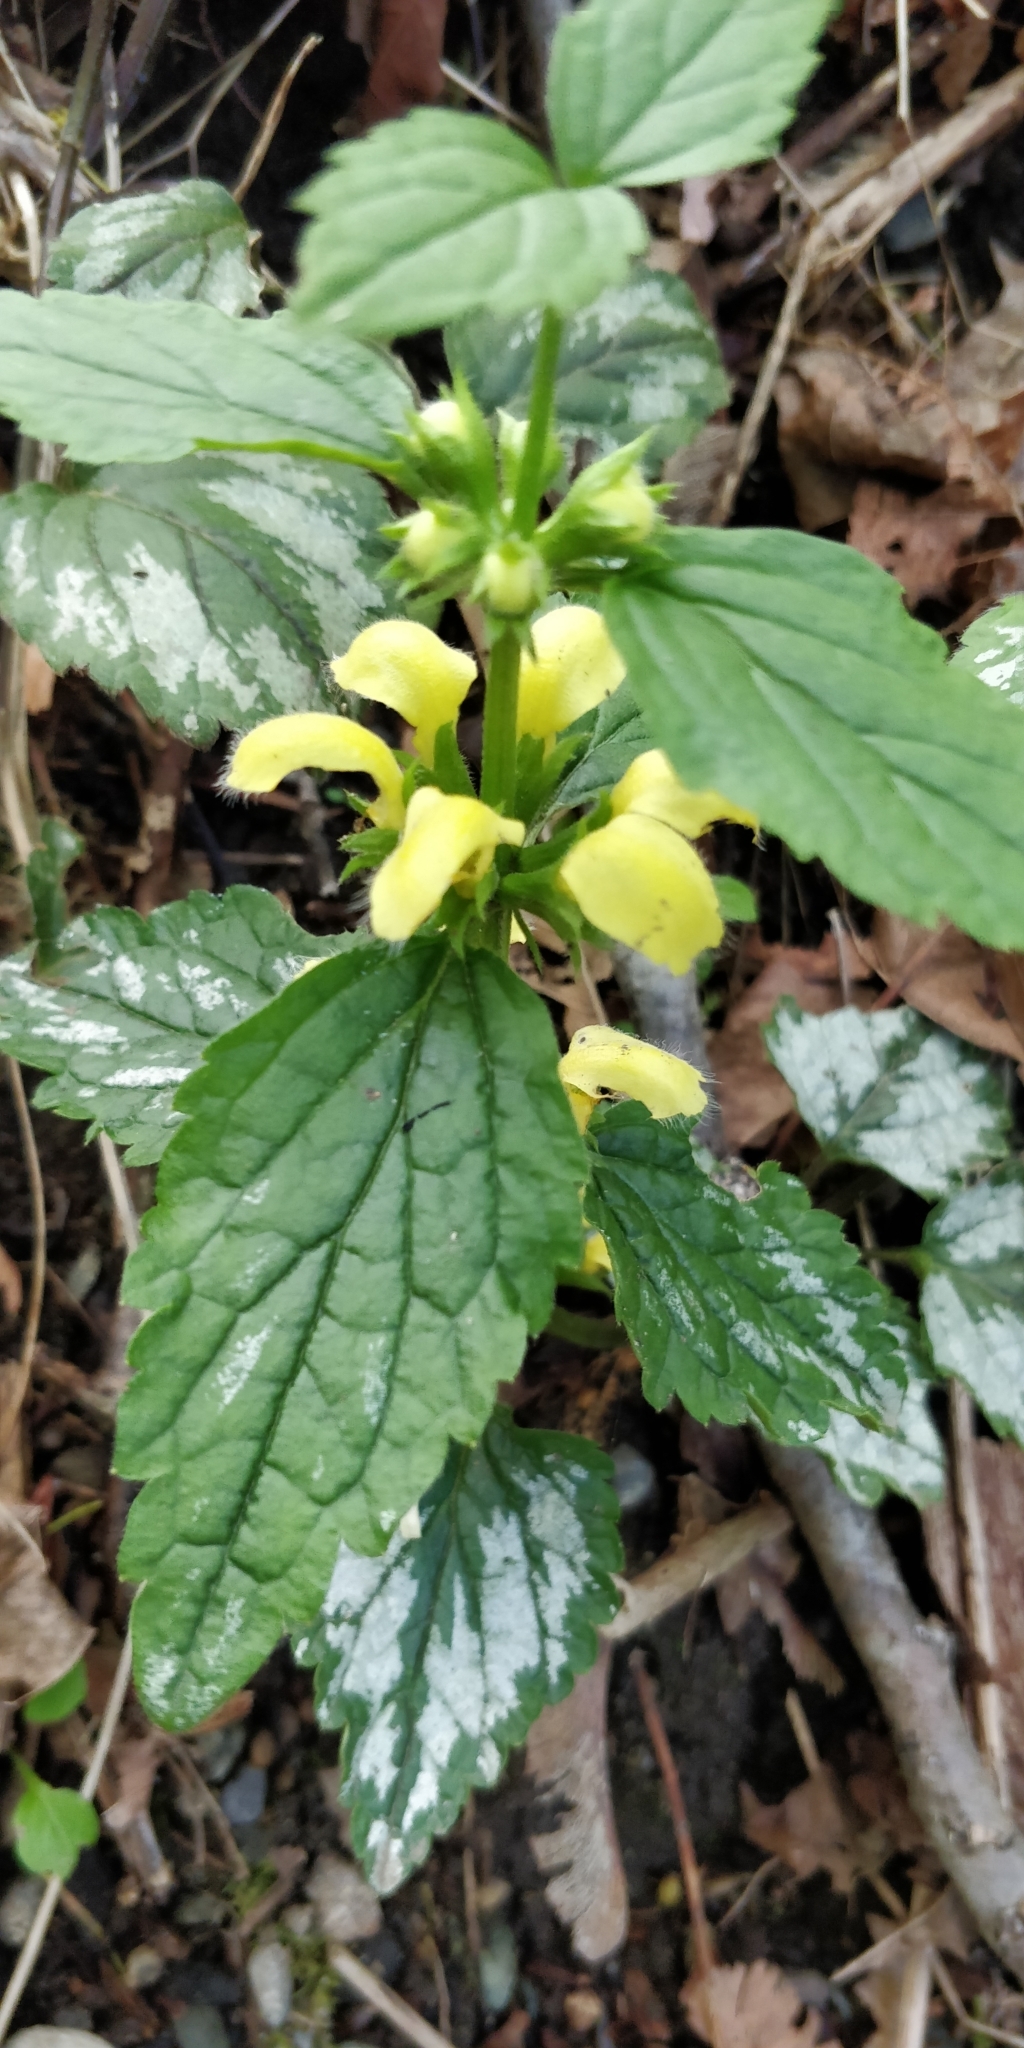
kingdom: Plantae
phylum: Tracheophyta
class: Magnoliopsida
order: Lamiales
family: Lamiaceae
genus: Lamium
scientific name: Lamium galeobdolon
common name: Yellow archangel
